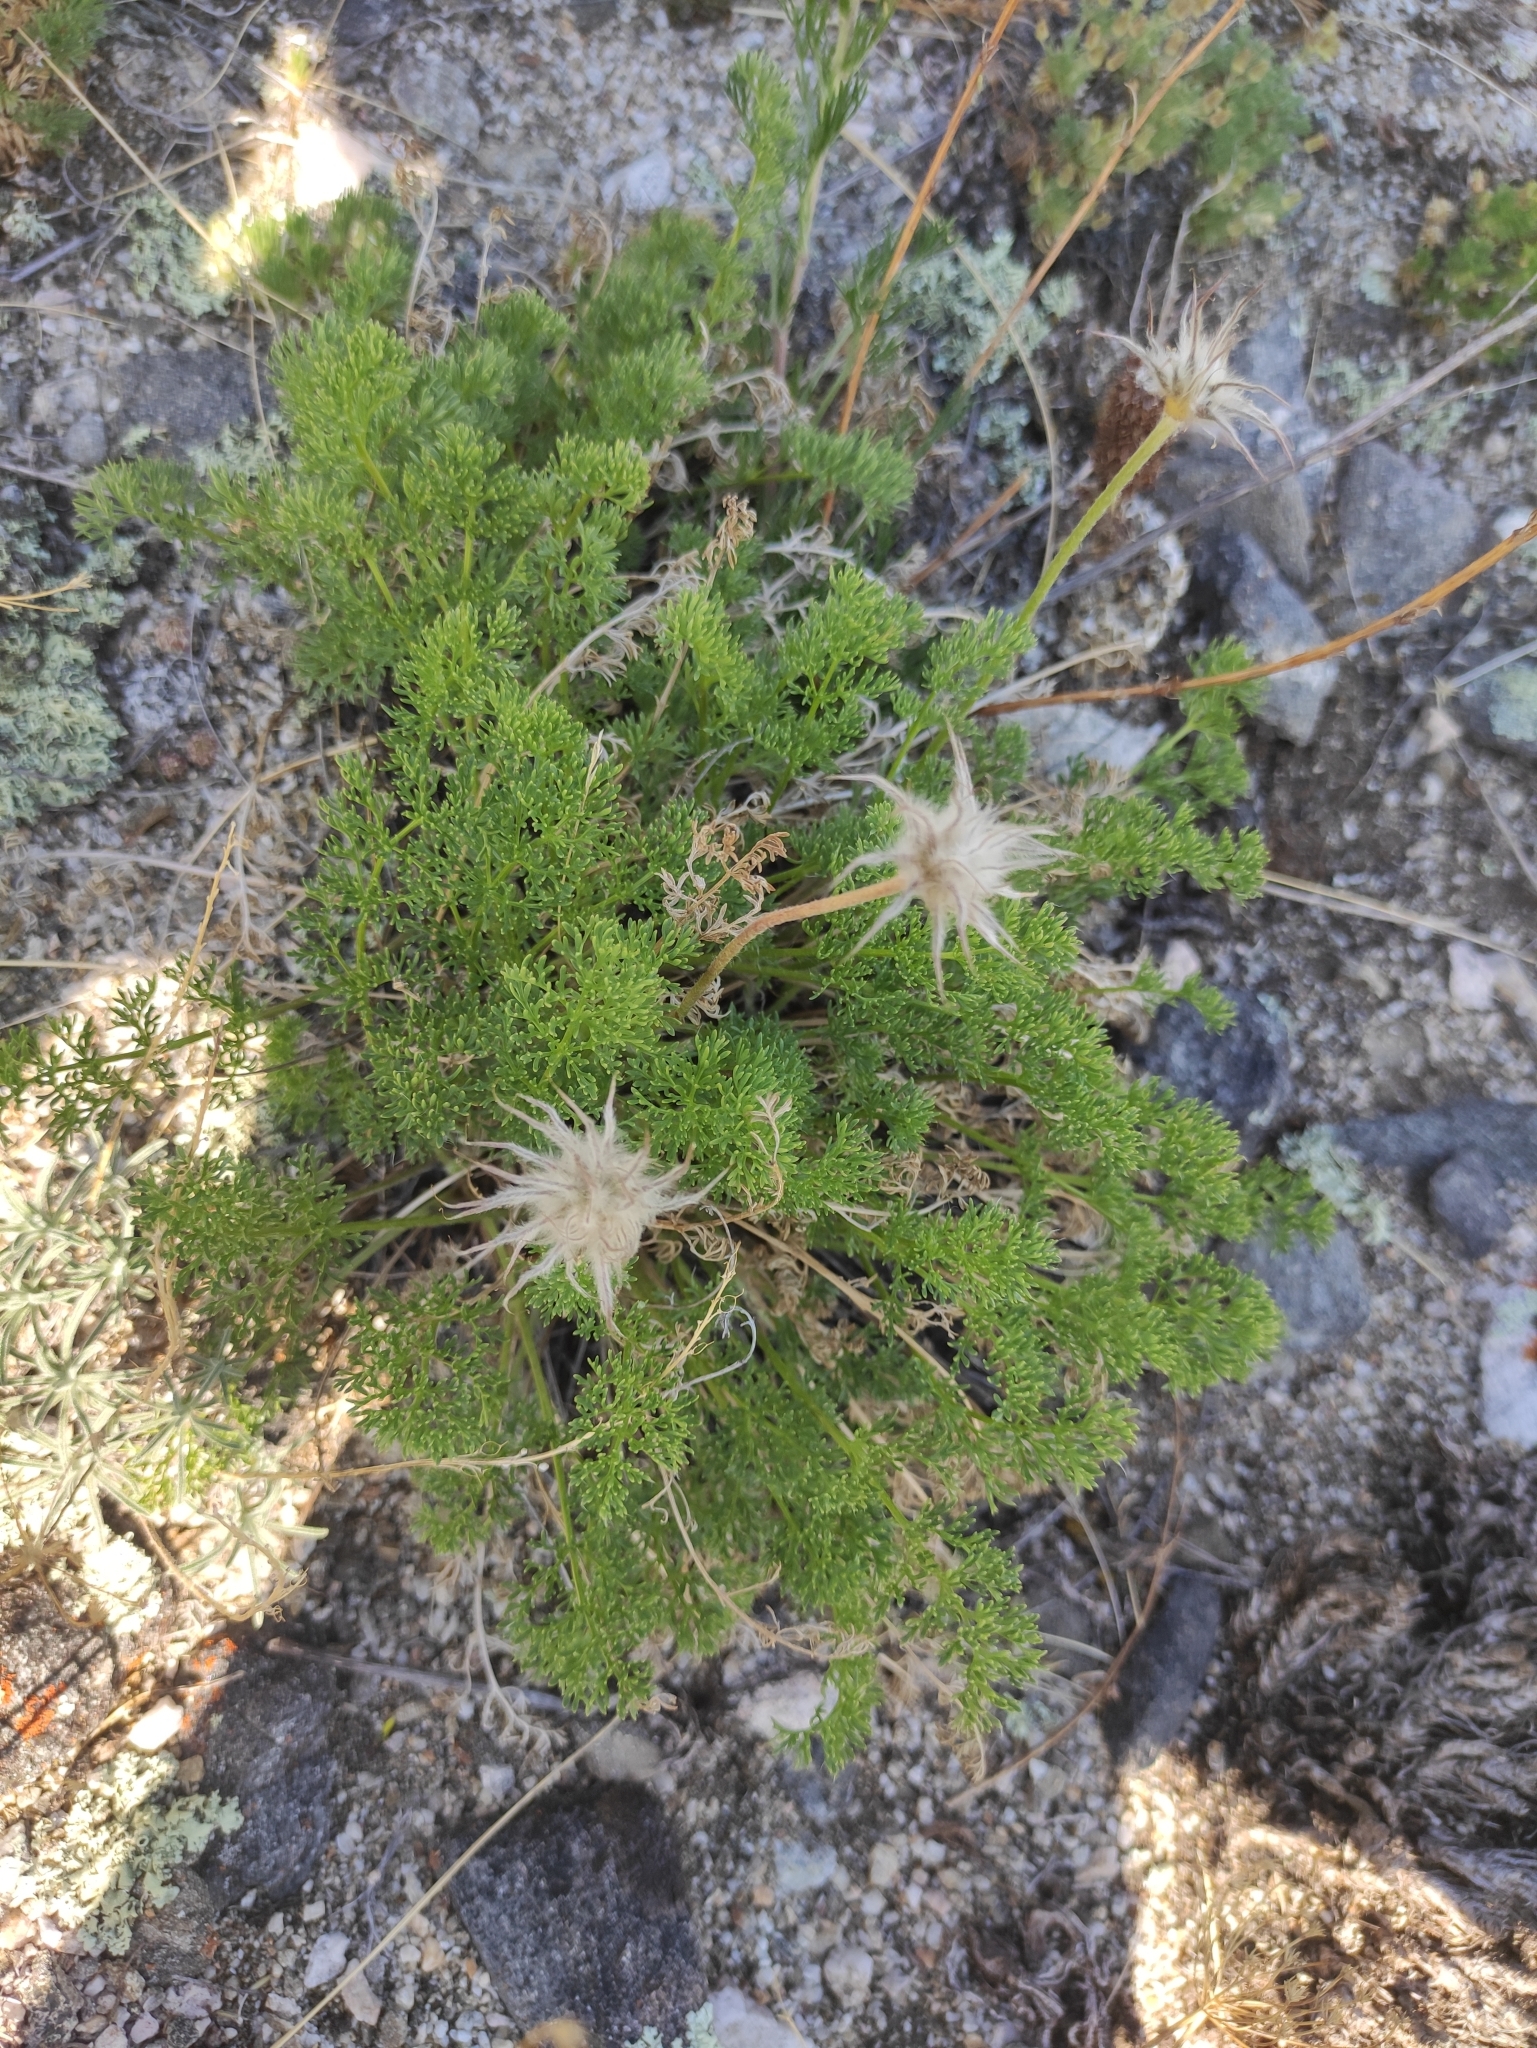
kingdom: Plantae
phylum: Tracheophyta
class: Magnoliopsida
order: Ranunculales
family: Ranunculaceae
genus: Pulsatilla
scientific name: Pulsatilla tenuiloba
